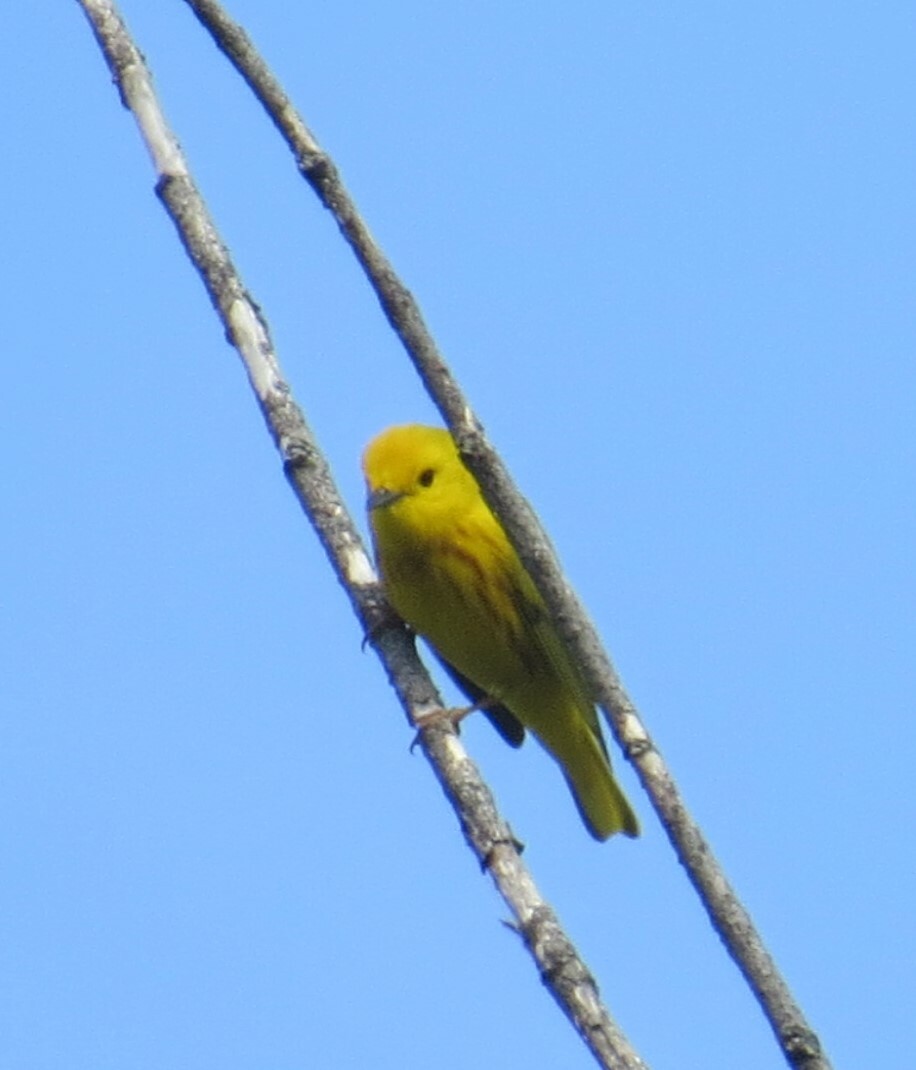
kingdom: Animalia
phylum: Chordata
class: Aves
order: Passeriformes
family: Parulidae
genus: Setophaga
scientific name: Setophaga petechia
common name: Yellow warbler
